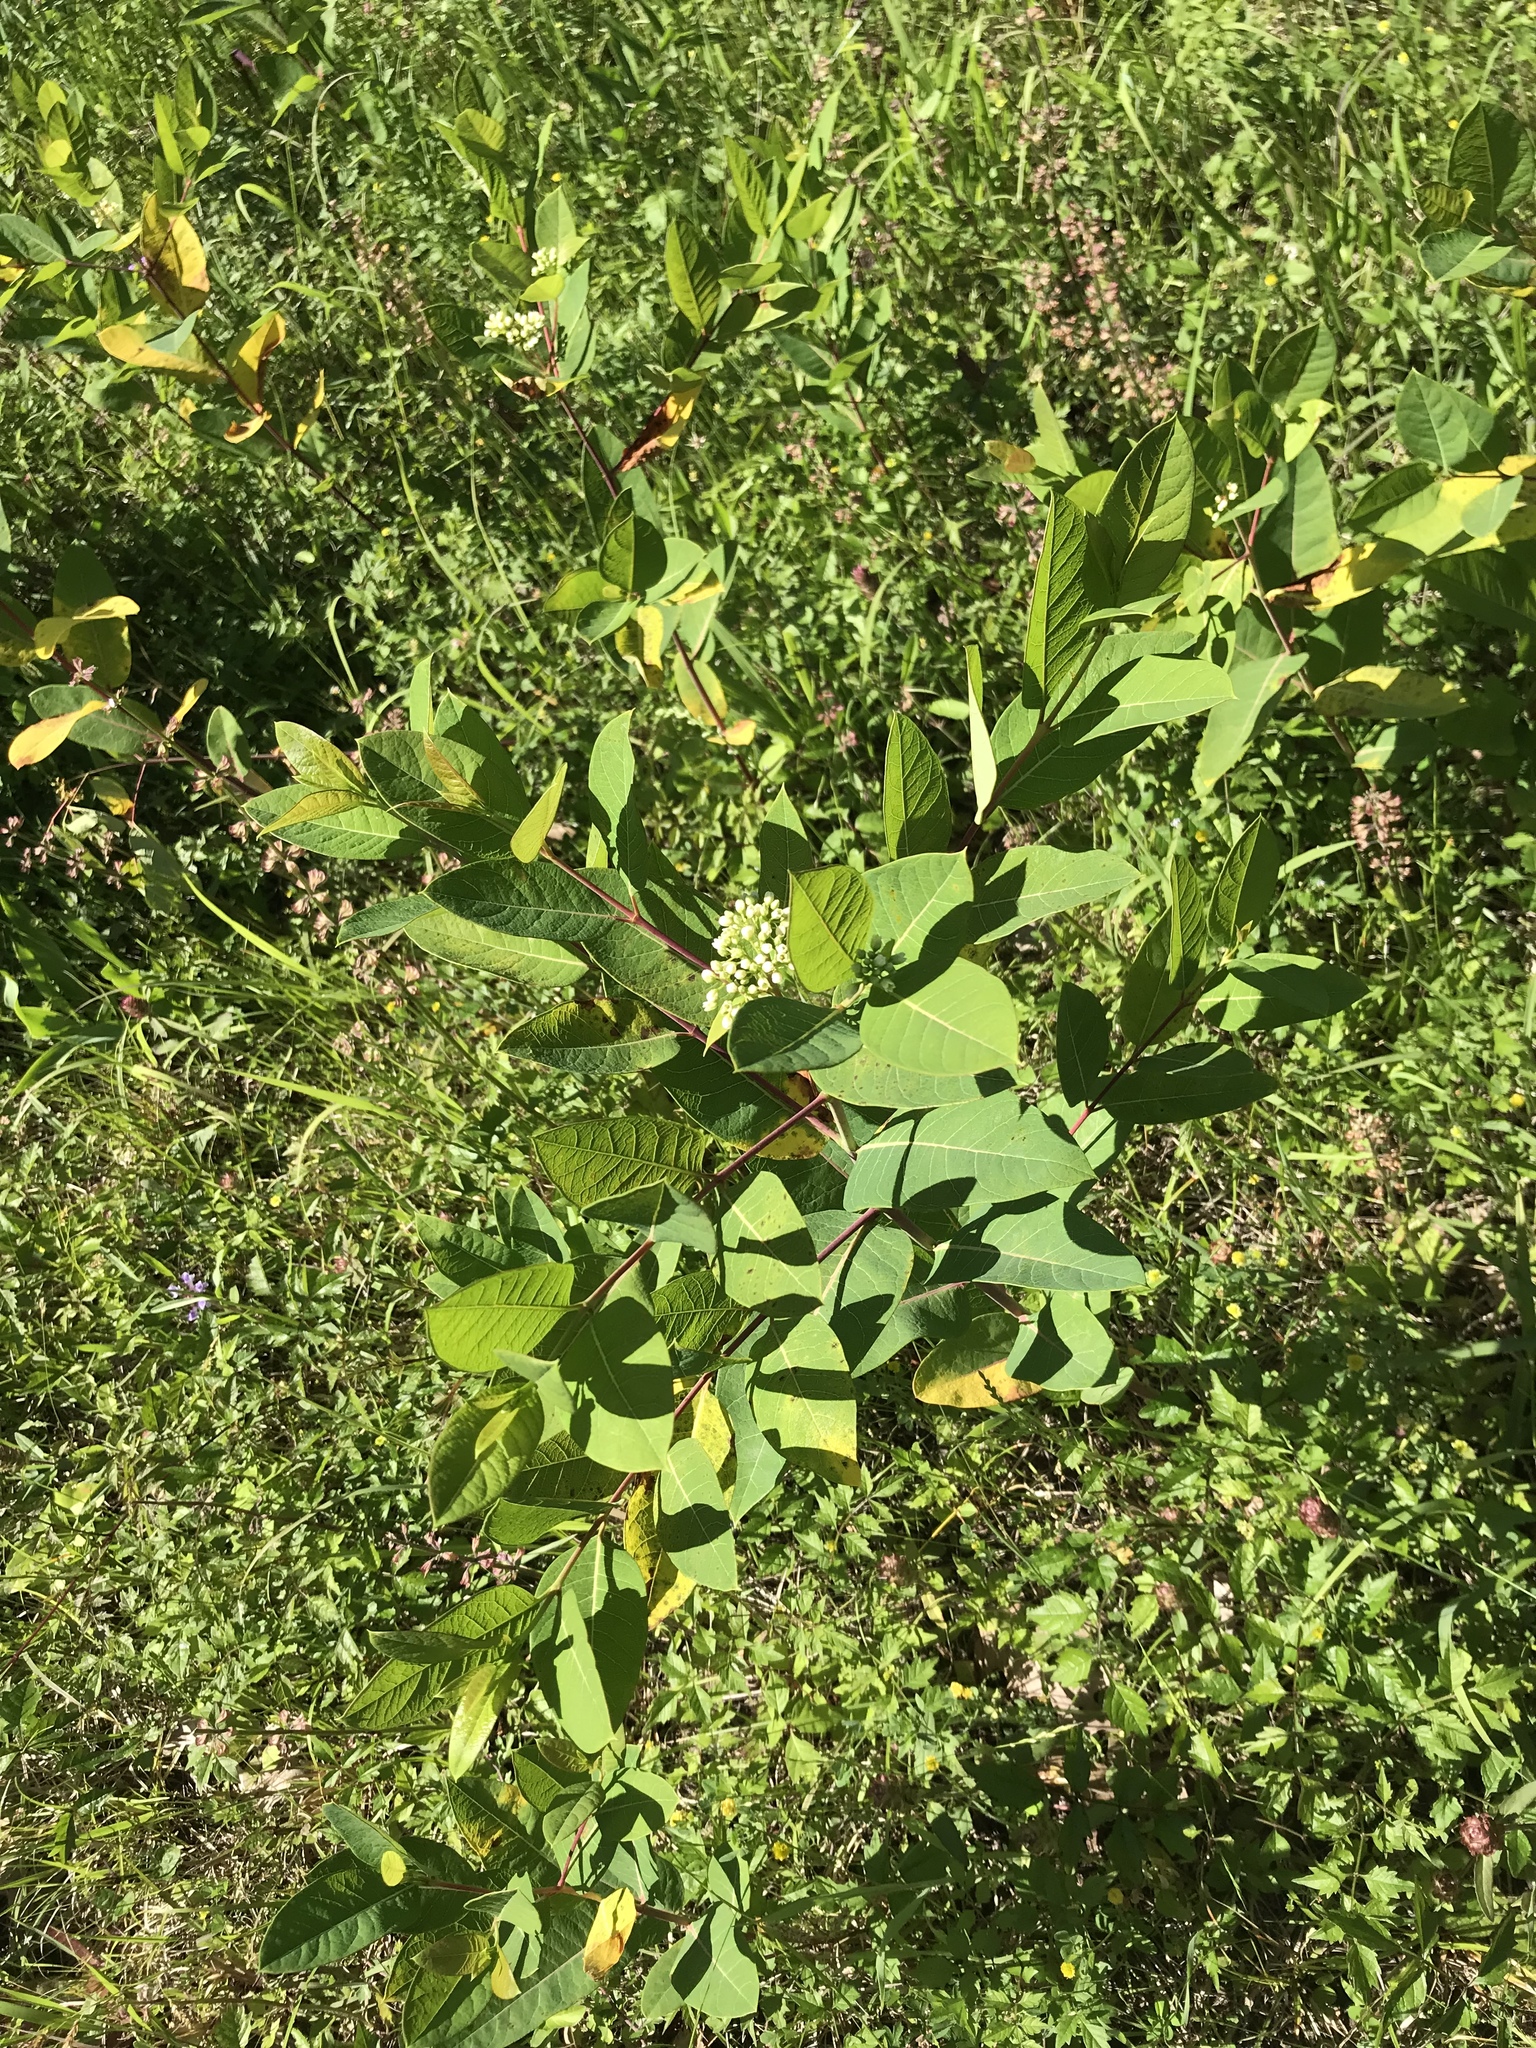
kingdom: Plantae
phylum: Tracheophyta
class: Magnoliopsida
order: Gentianales
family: Apocynaceae
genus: Apocynum
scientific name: Apocynum cannabinum
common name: Hemp dogbane
